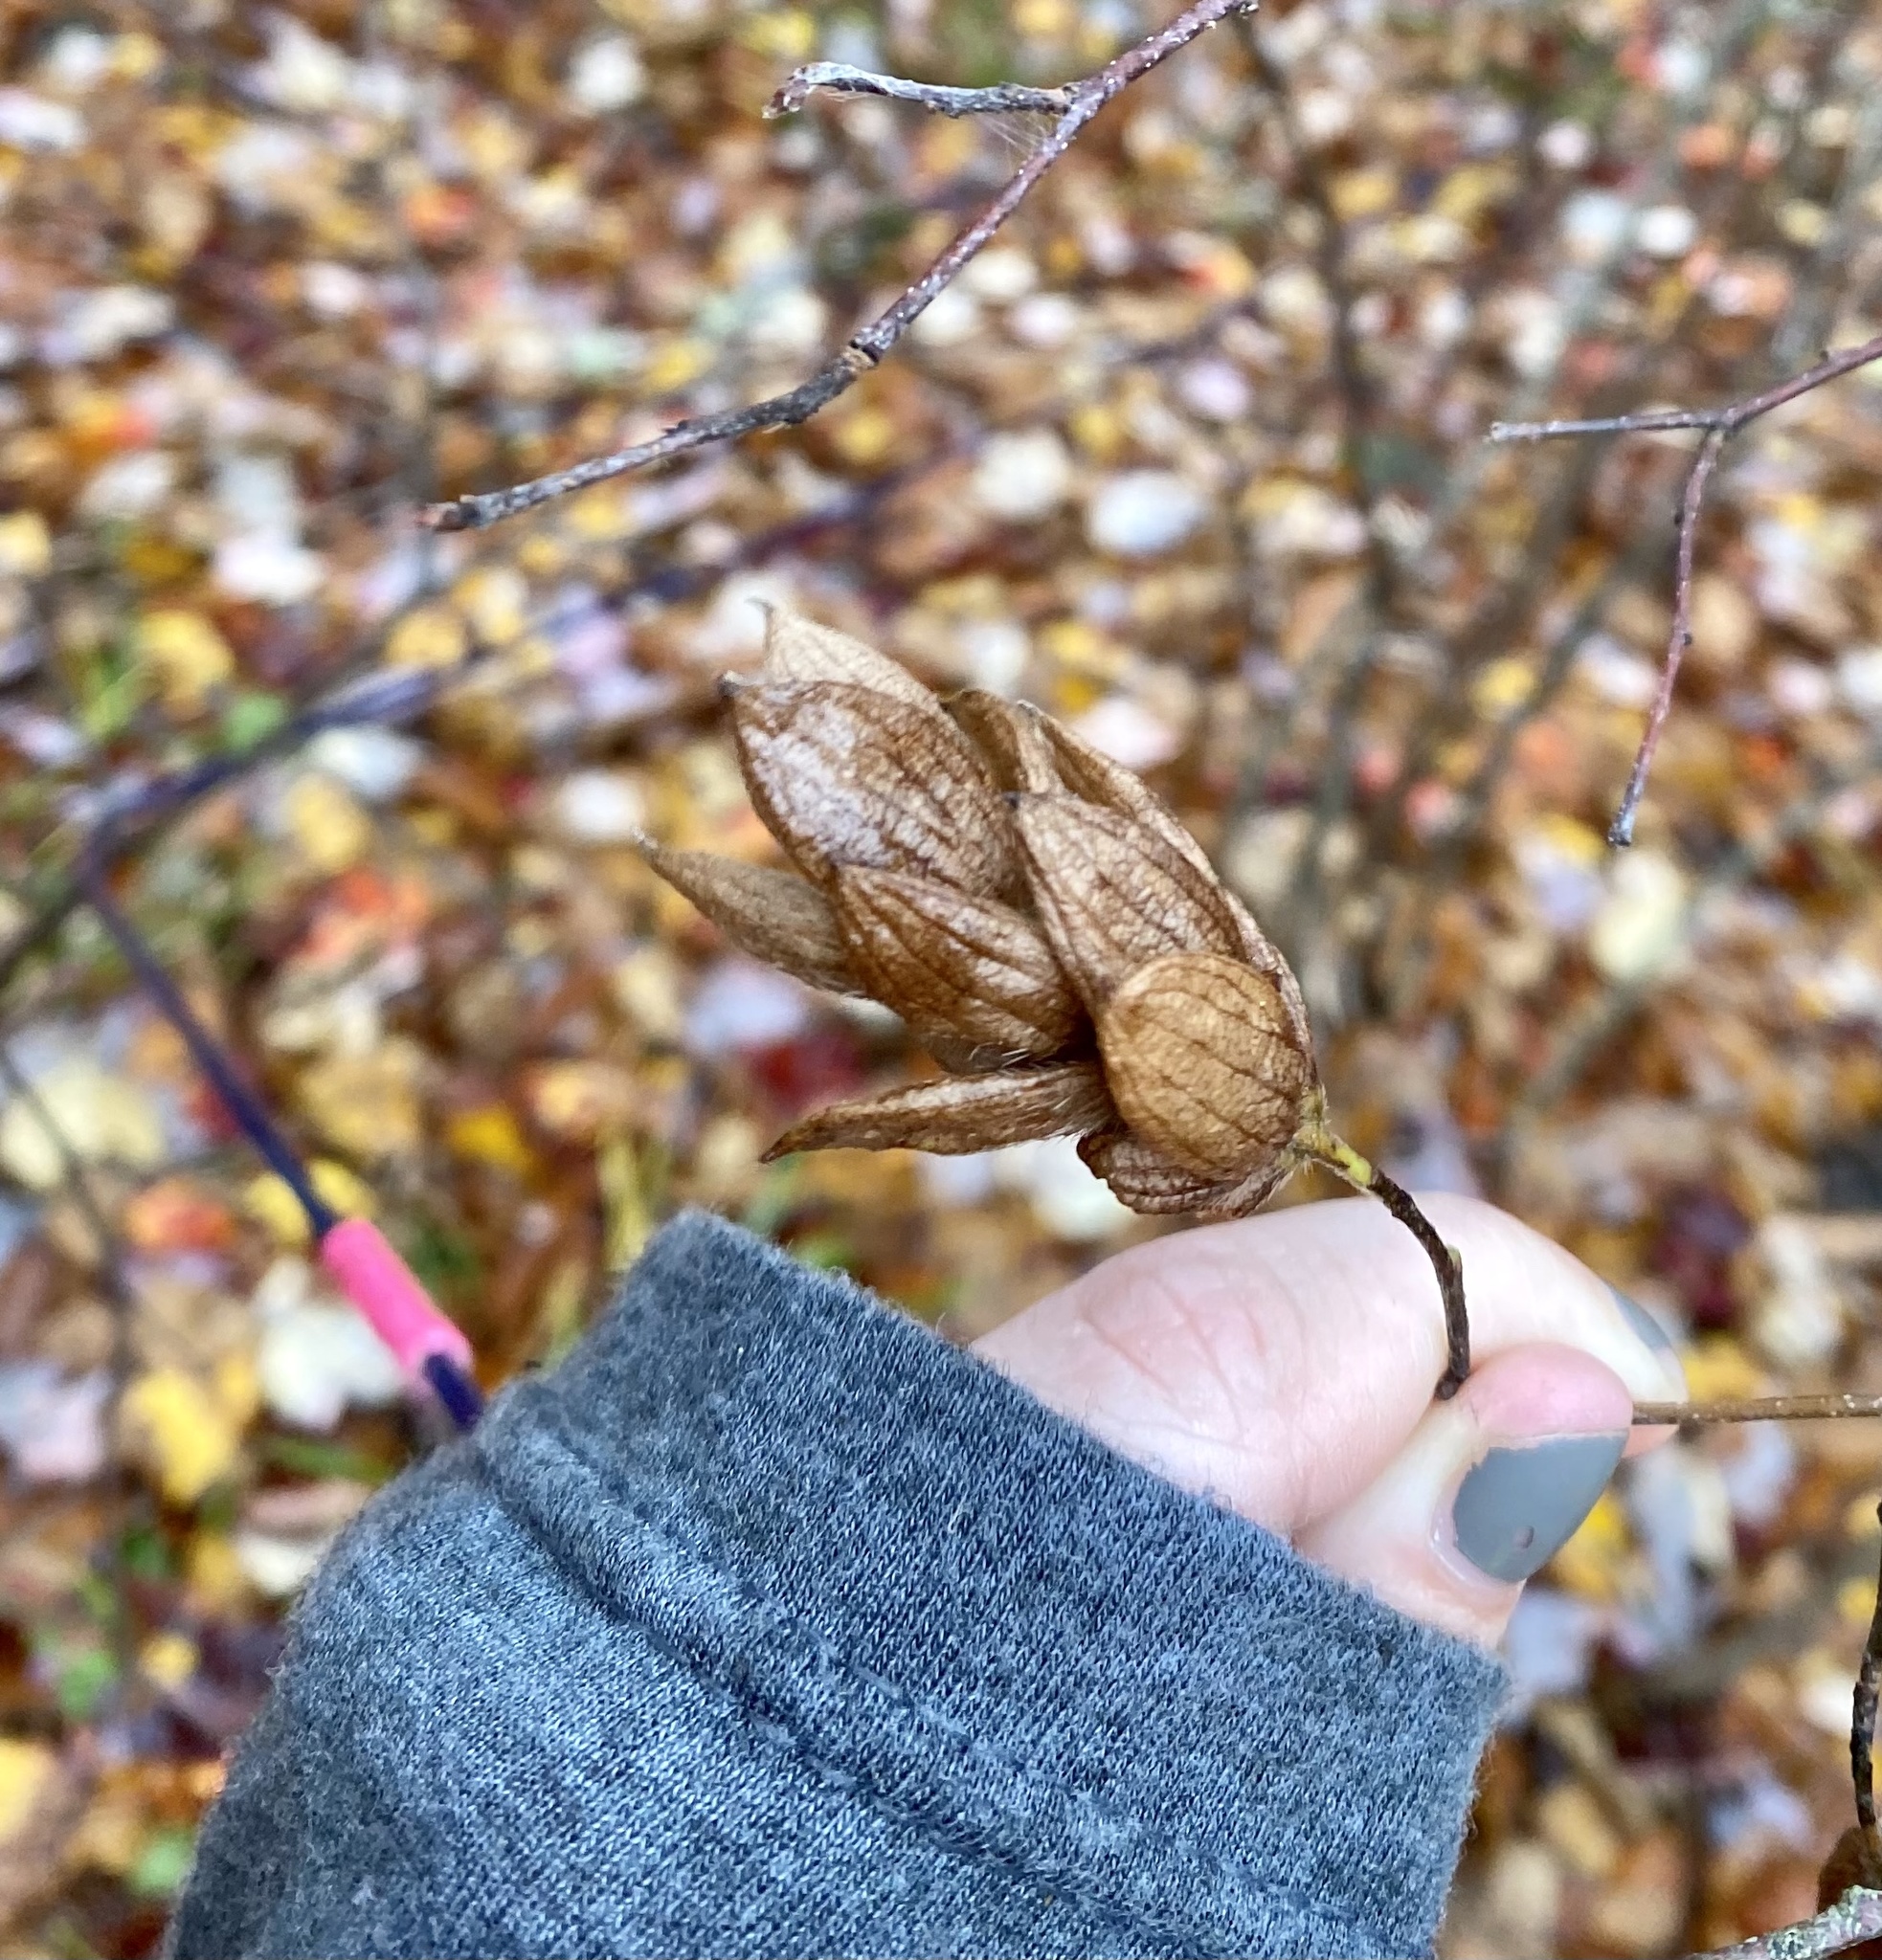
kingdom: Plantae
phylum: Tracheophyta
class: Magnoliopsida
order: Fagales
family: Betulaceae
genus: Ostrya
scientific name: Ostrya virginiana
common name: Ironwood
